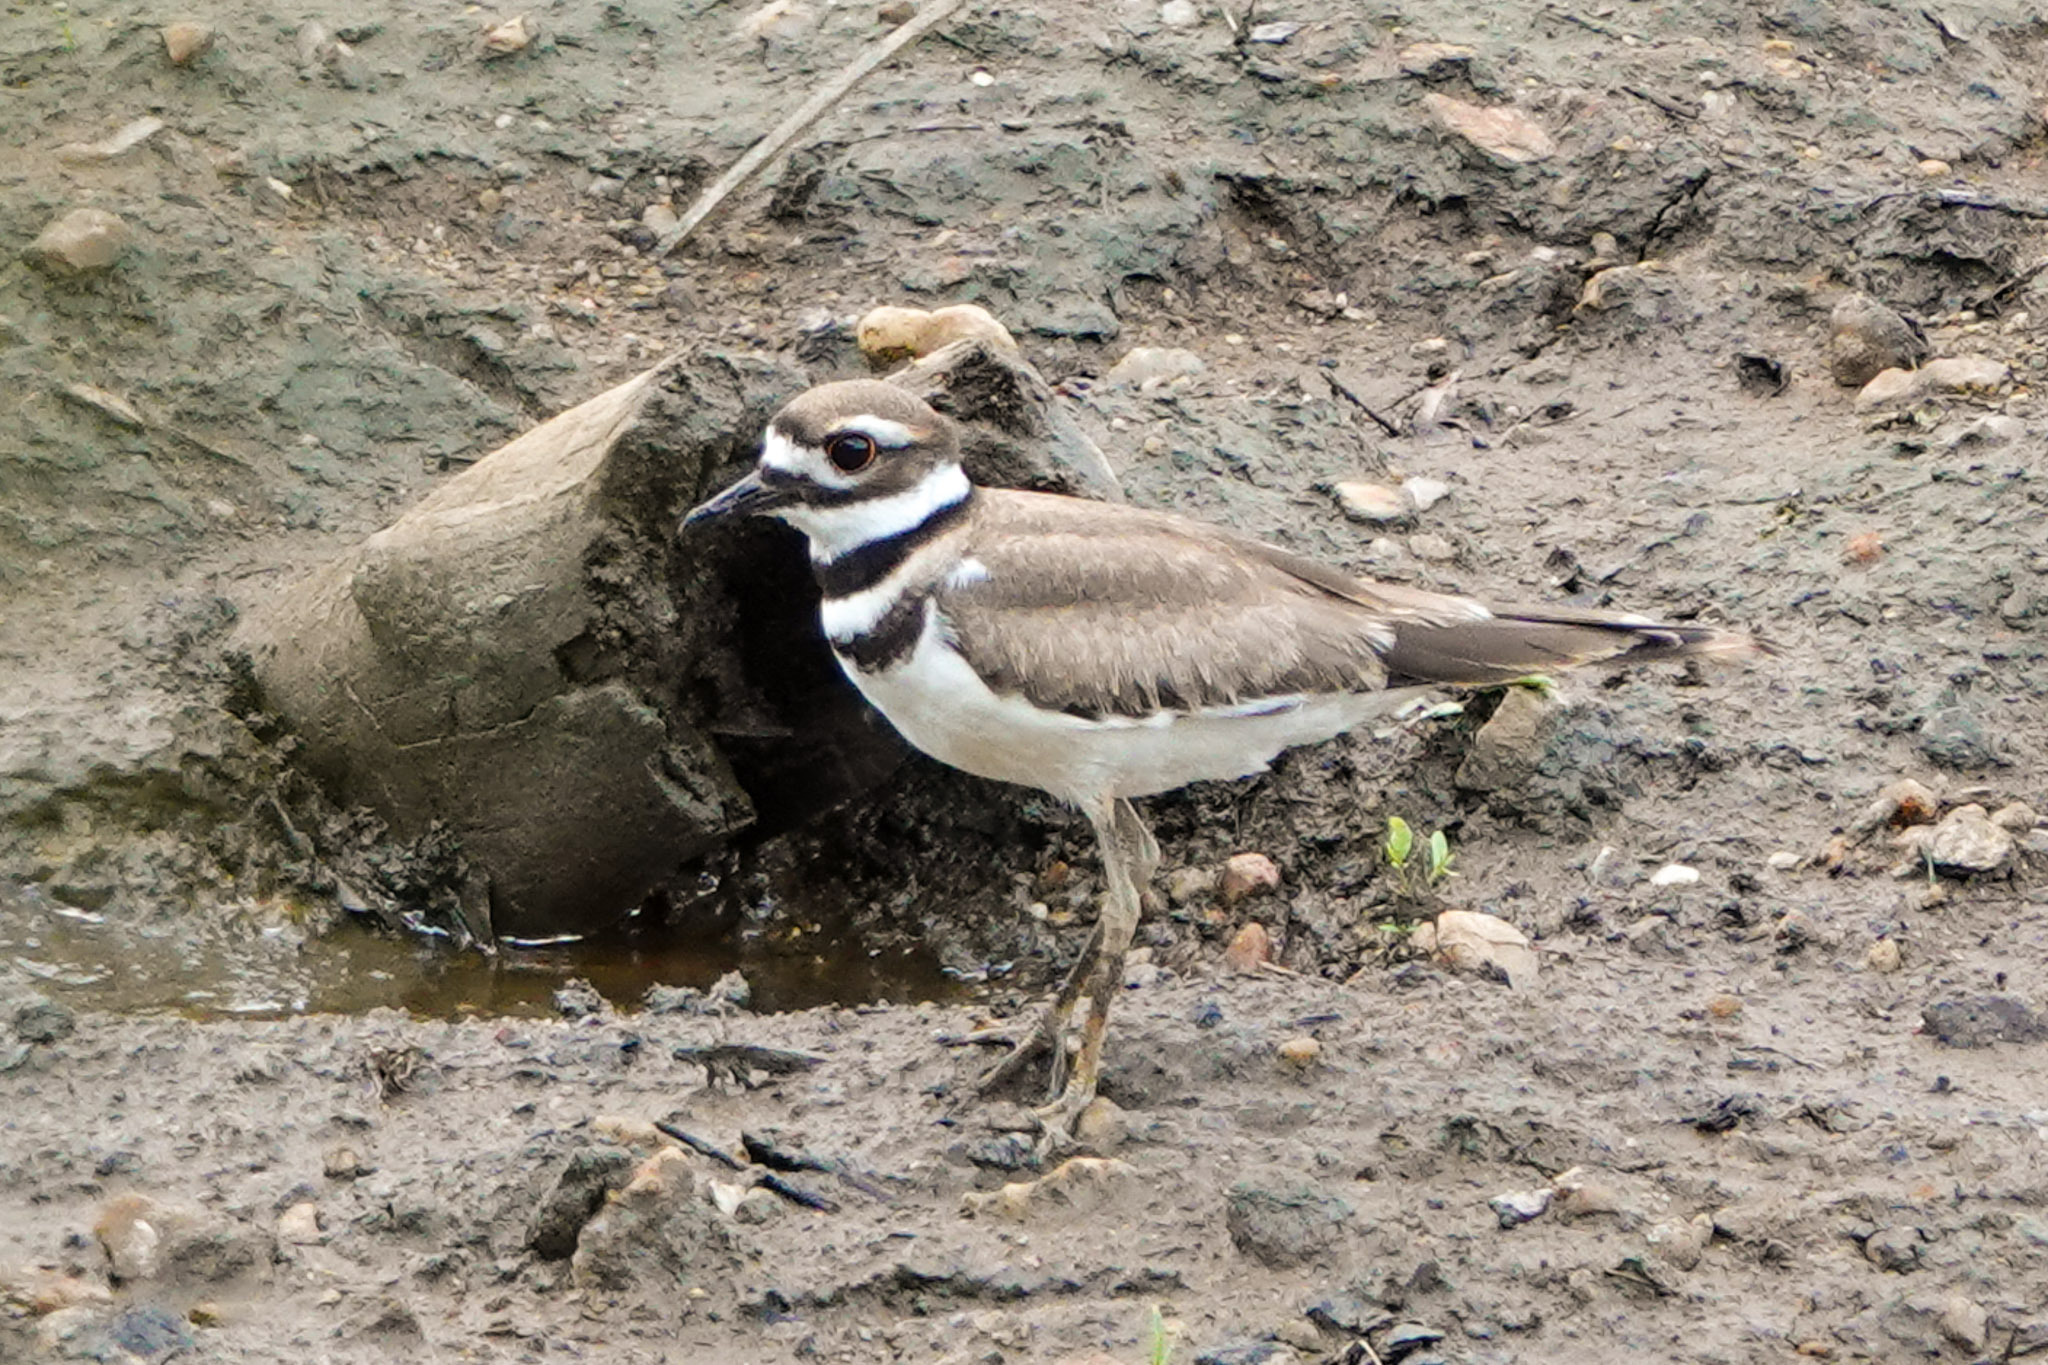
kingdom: Animalia
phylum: Chordata
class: Aves
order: Charadriiformes
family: Charadriidae
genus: Charadrius
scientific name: Charadrius vociferus
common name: Killdeer
